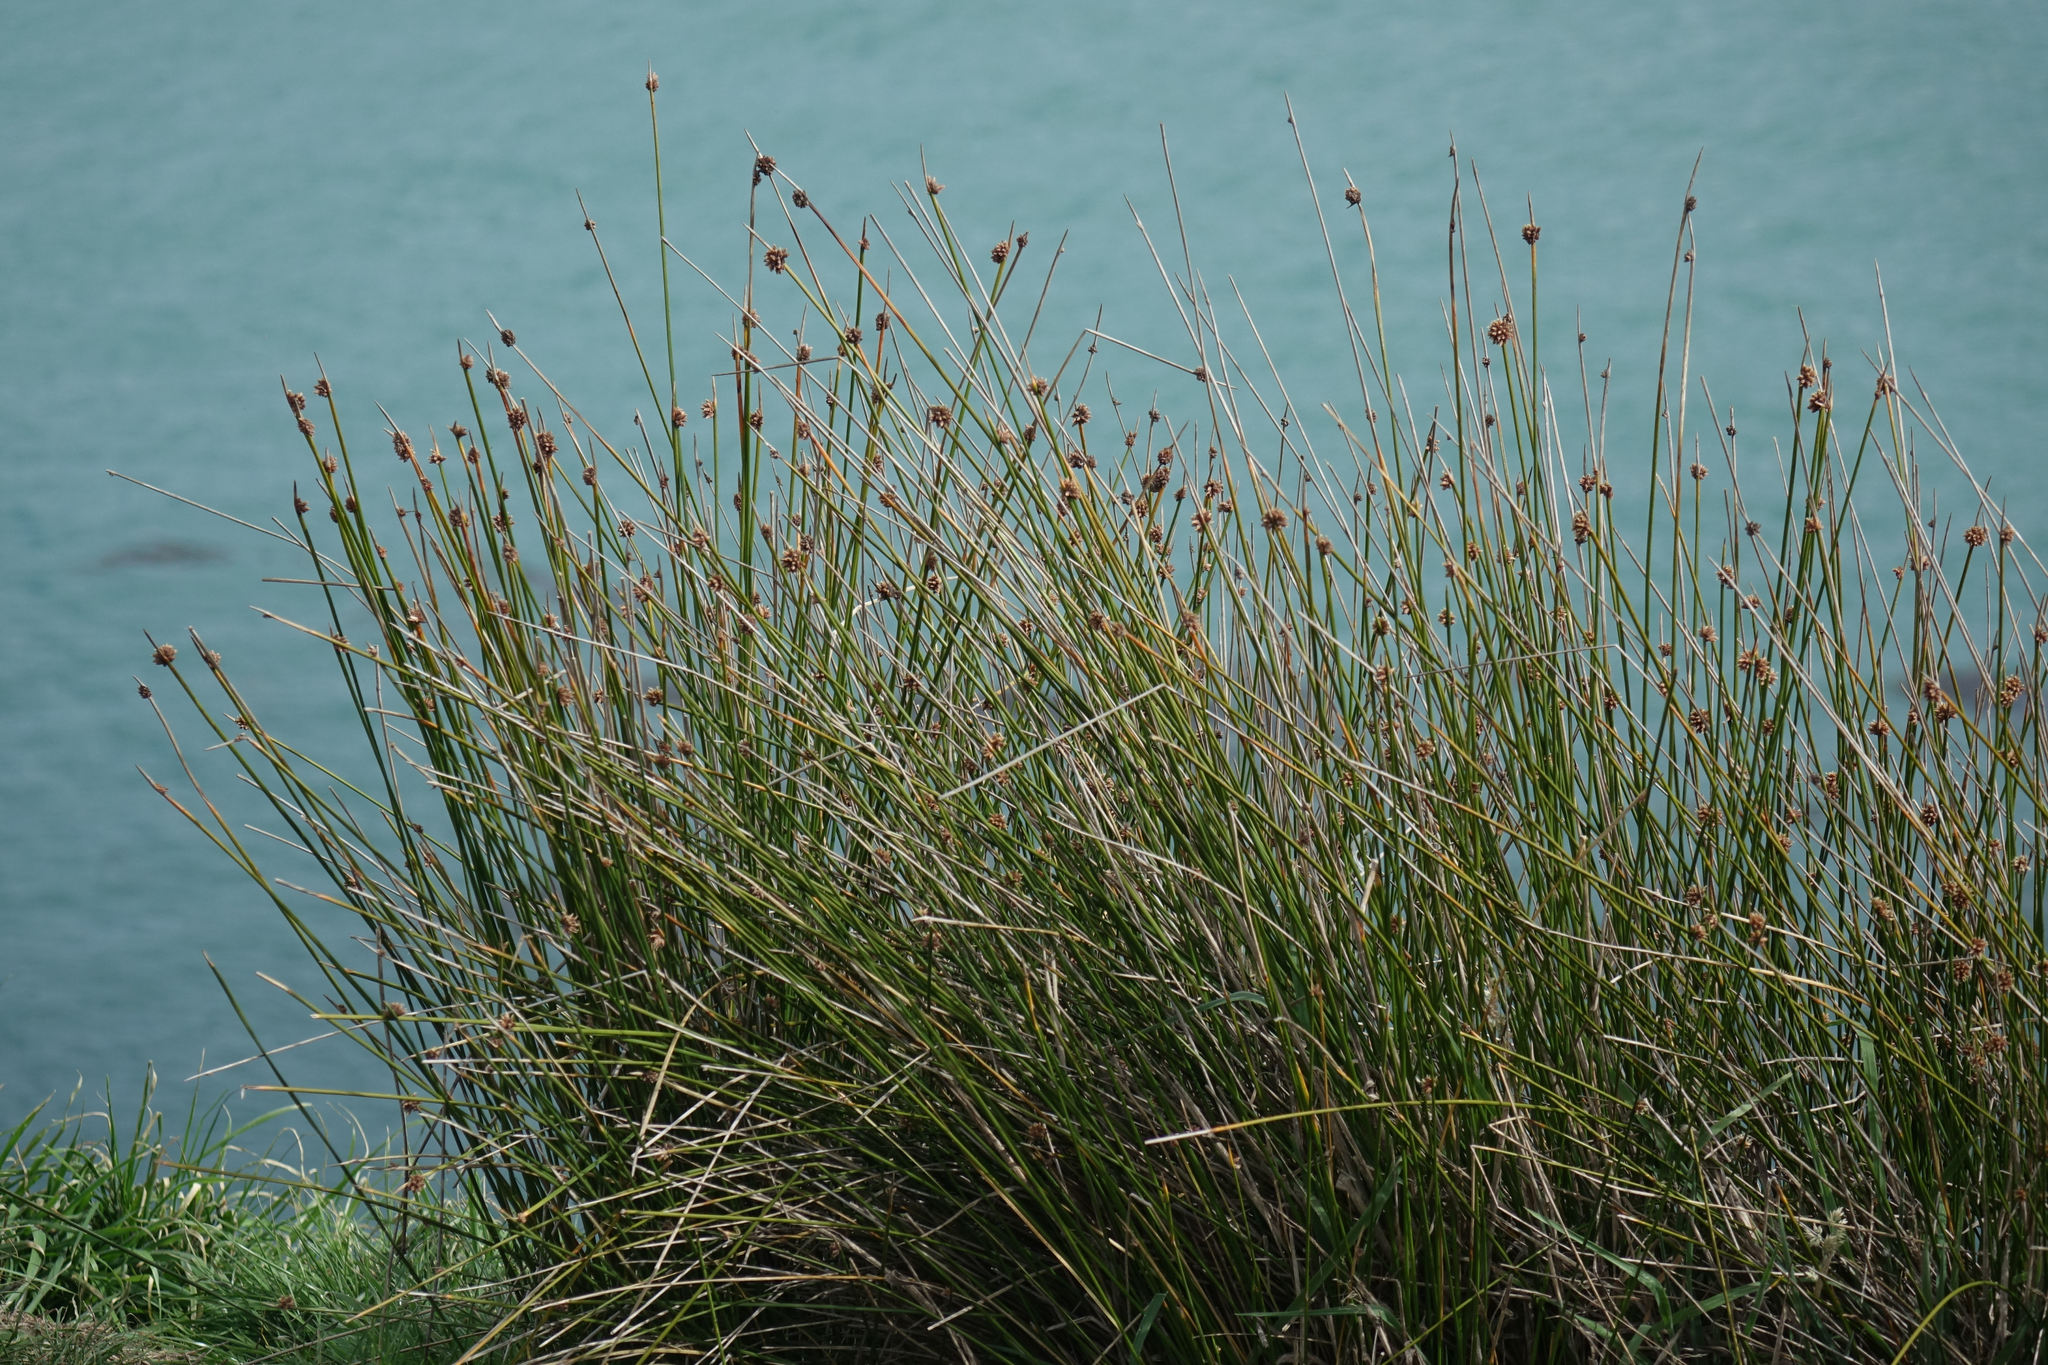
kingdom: Plantae
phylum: Tracheophyta
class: Liliopsida
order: Poales
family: Cyperaceae
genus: Ficinia
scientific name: Ficinia nodosa
